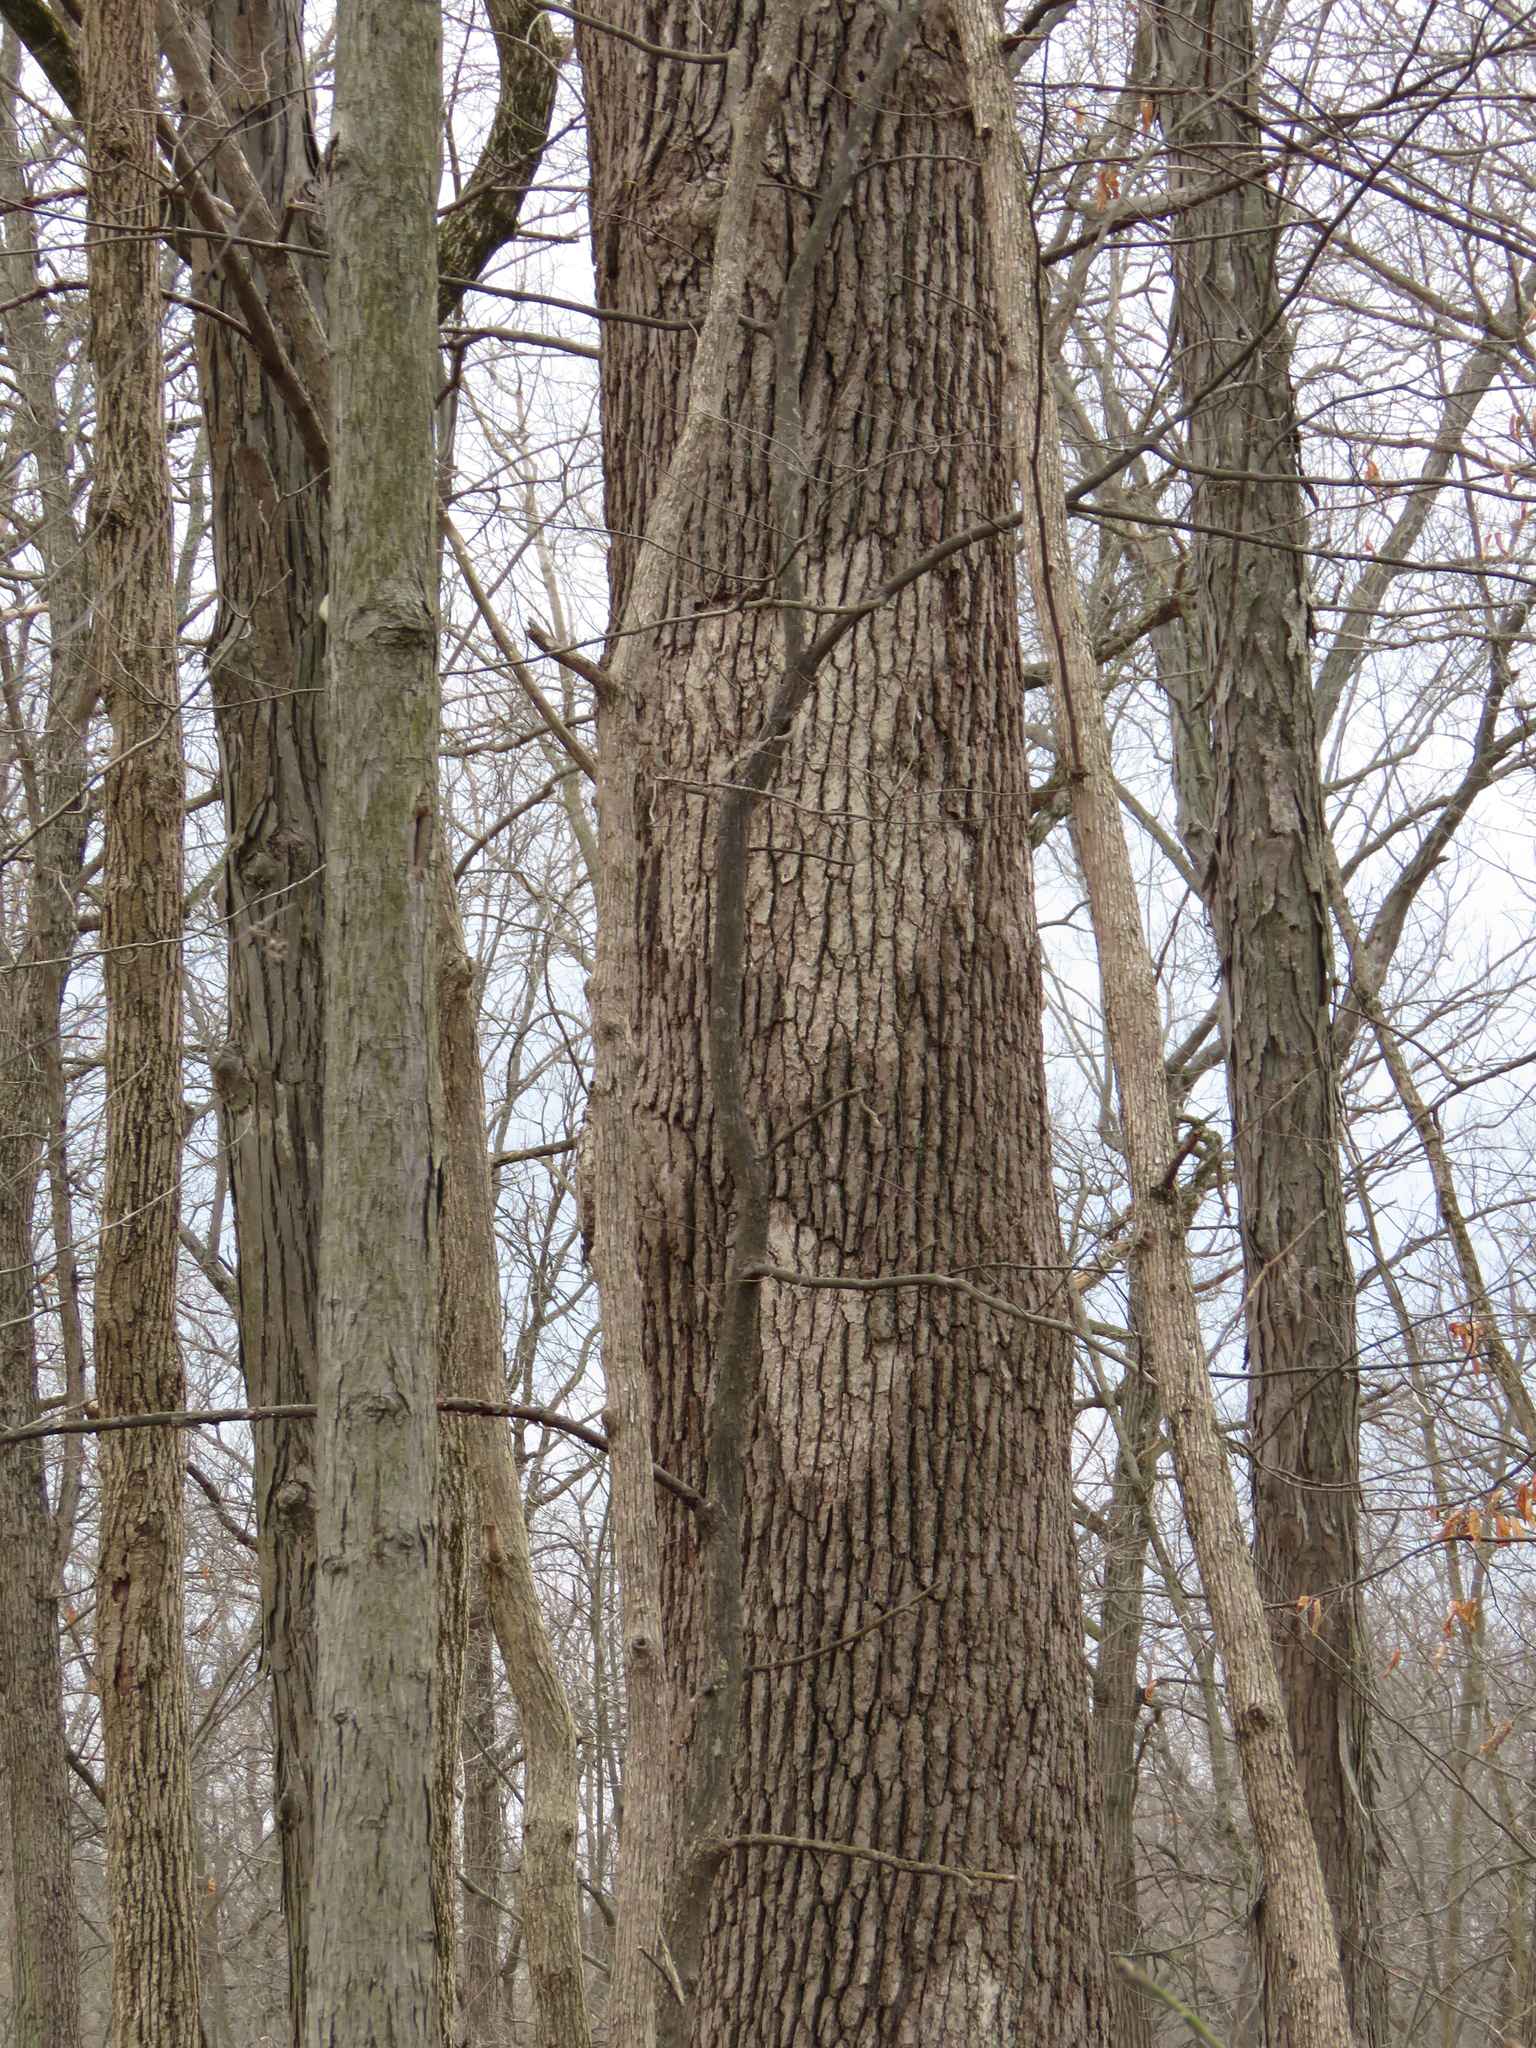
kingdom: Fungi
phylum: Basidiomycota
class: Agaricomycetes
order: Russulales
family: Stereaceae
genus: Acanthophysium
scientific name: Acanthophysium oakesii
